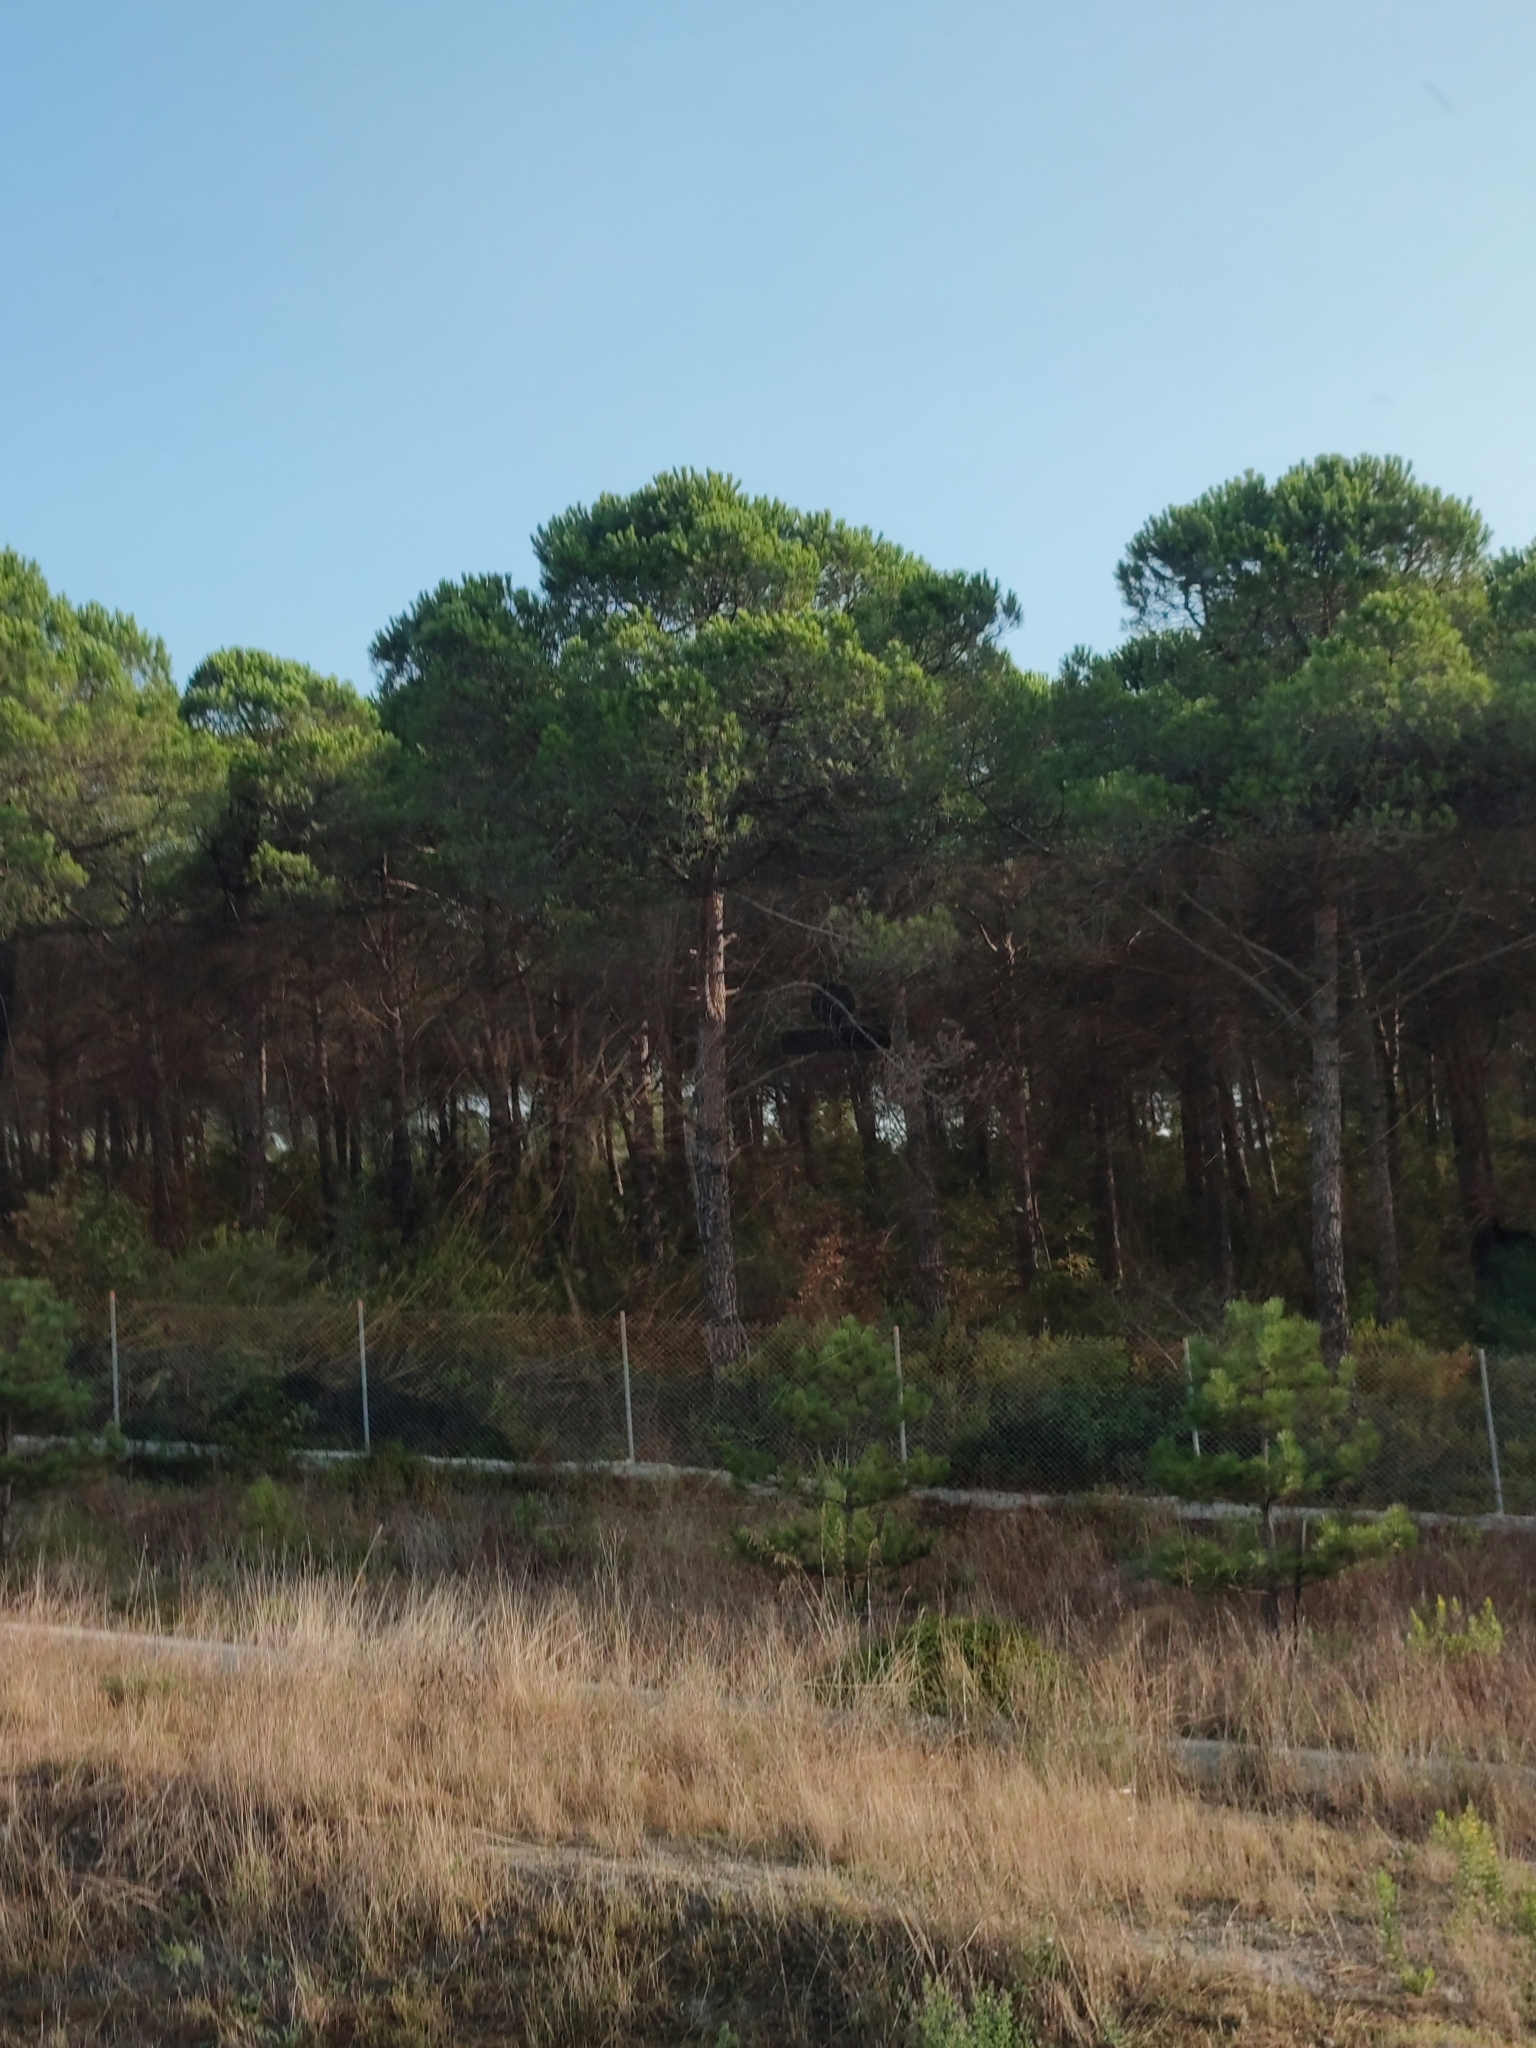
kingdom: Plantae
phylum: Tracheophyta
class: Pinopsida
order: Pinales
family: Pinaceae
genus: Pinus
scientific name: Pinus brutia
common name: Turkish pine
